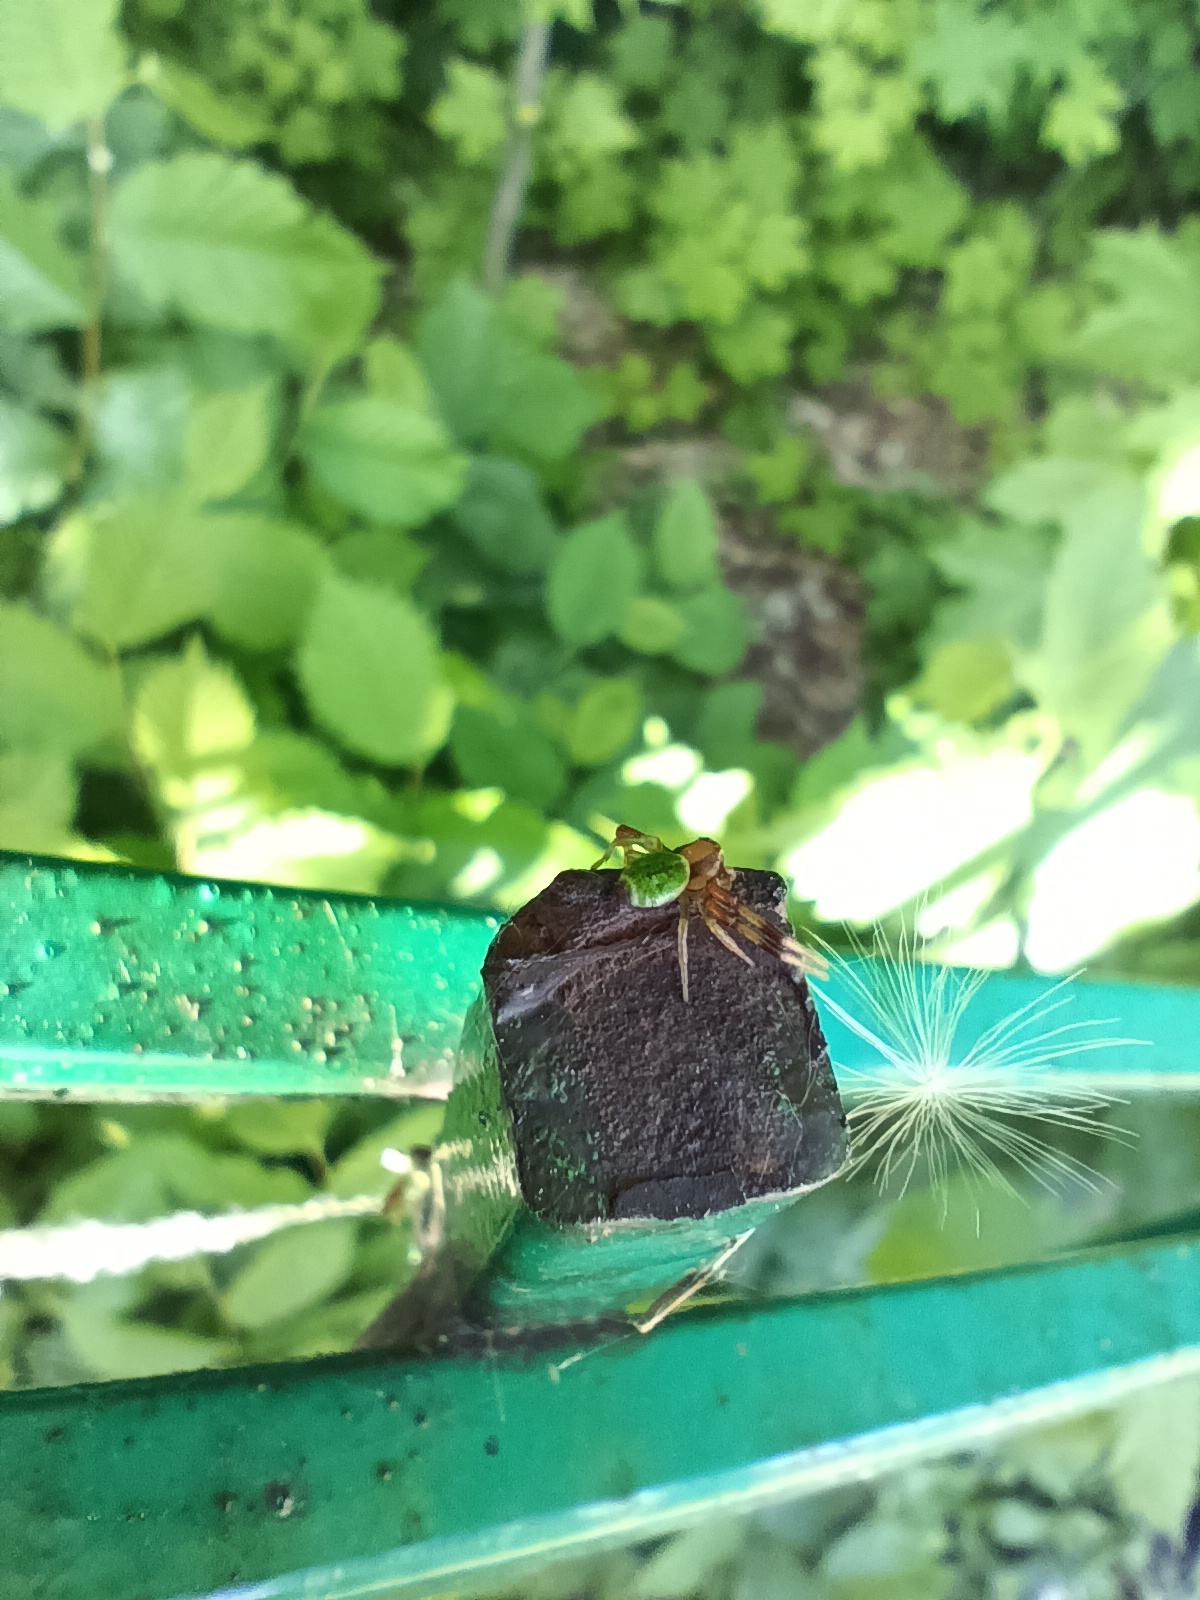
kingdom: Animalia
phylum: Arthropoda
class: Arachnida
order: Araneae
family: Thomisidae
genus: Ebrechtella
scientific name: Ebrechtella tricuspidata
